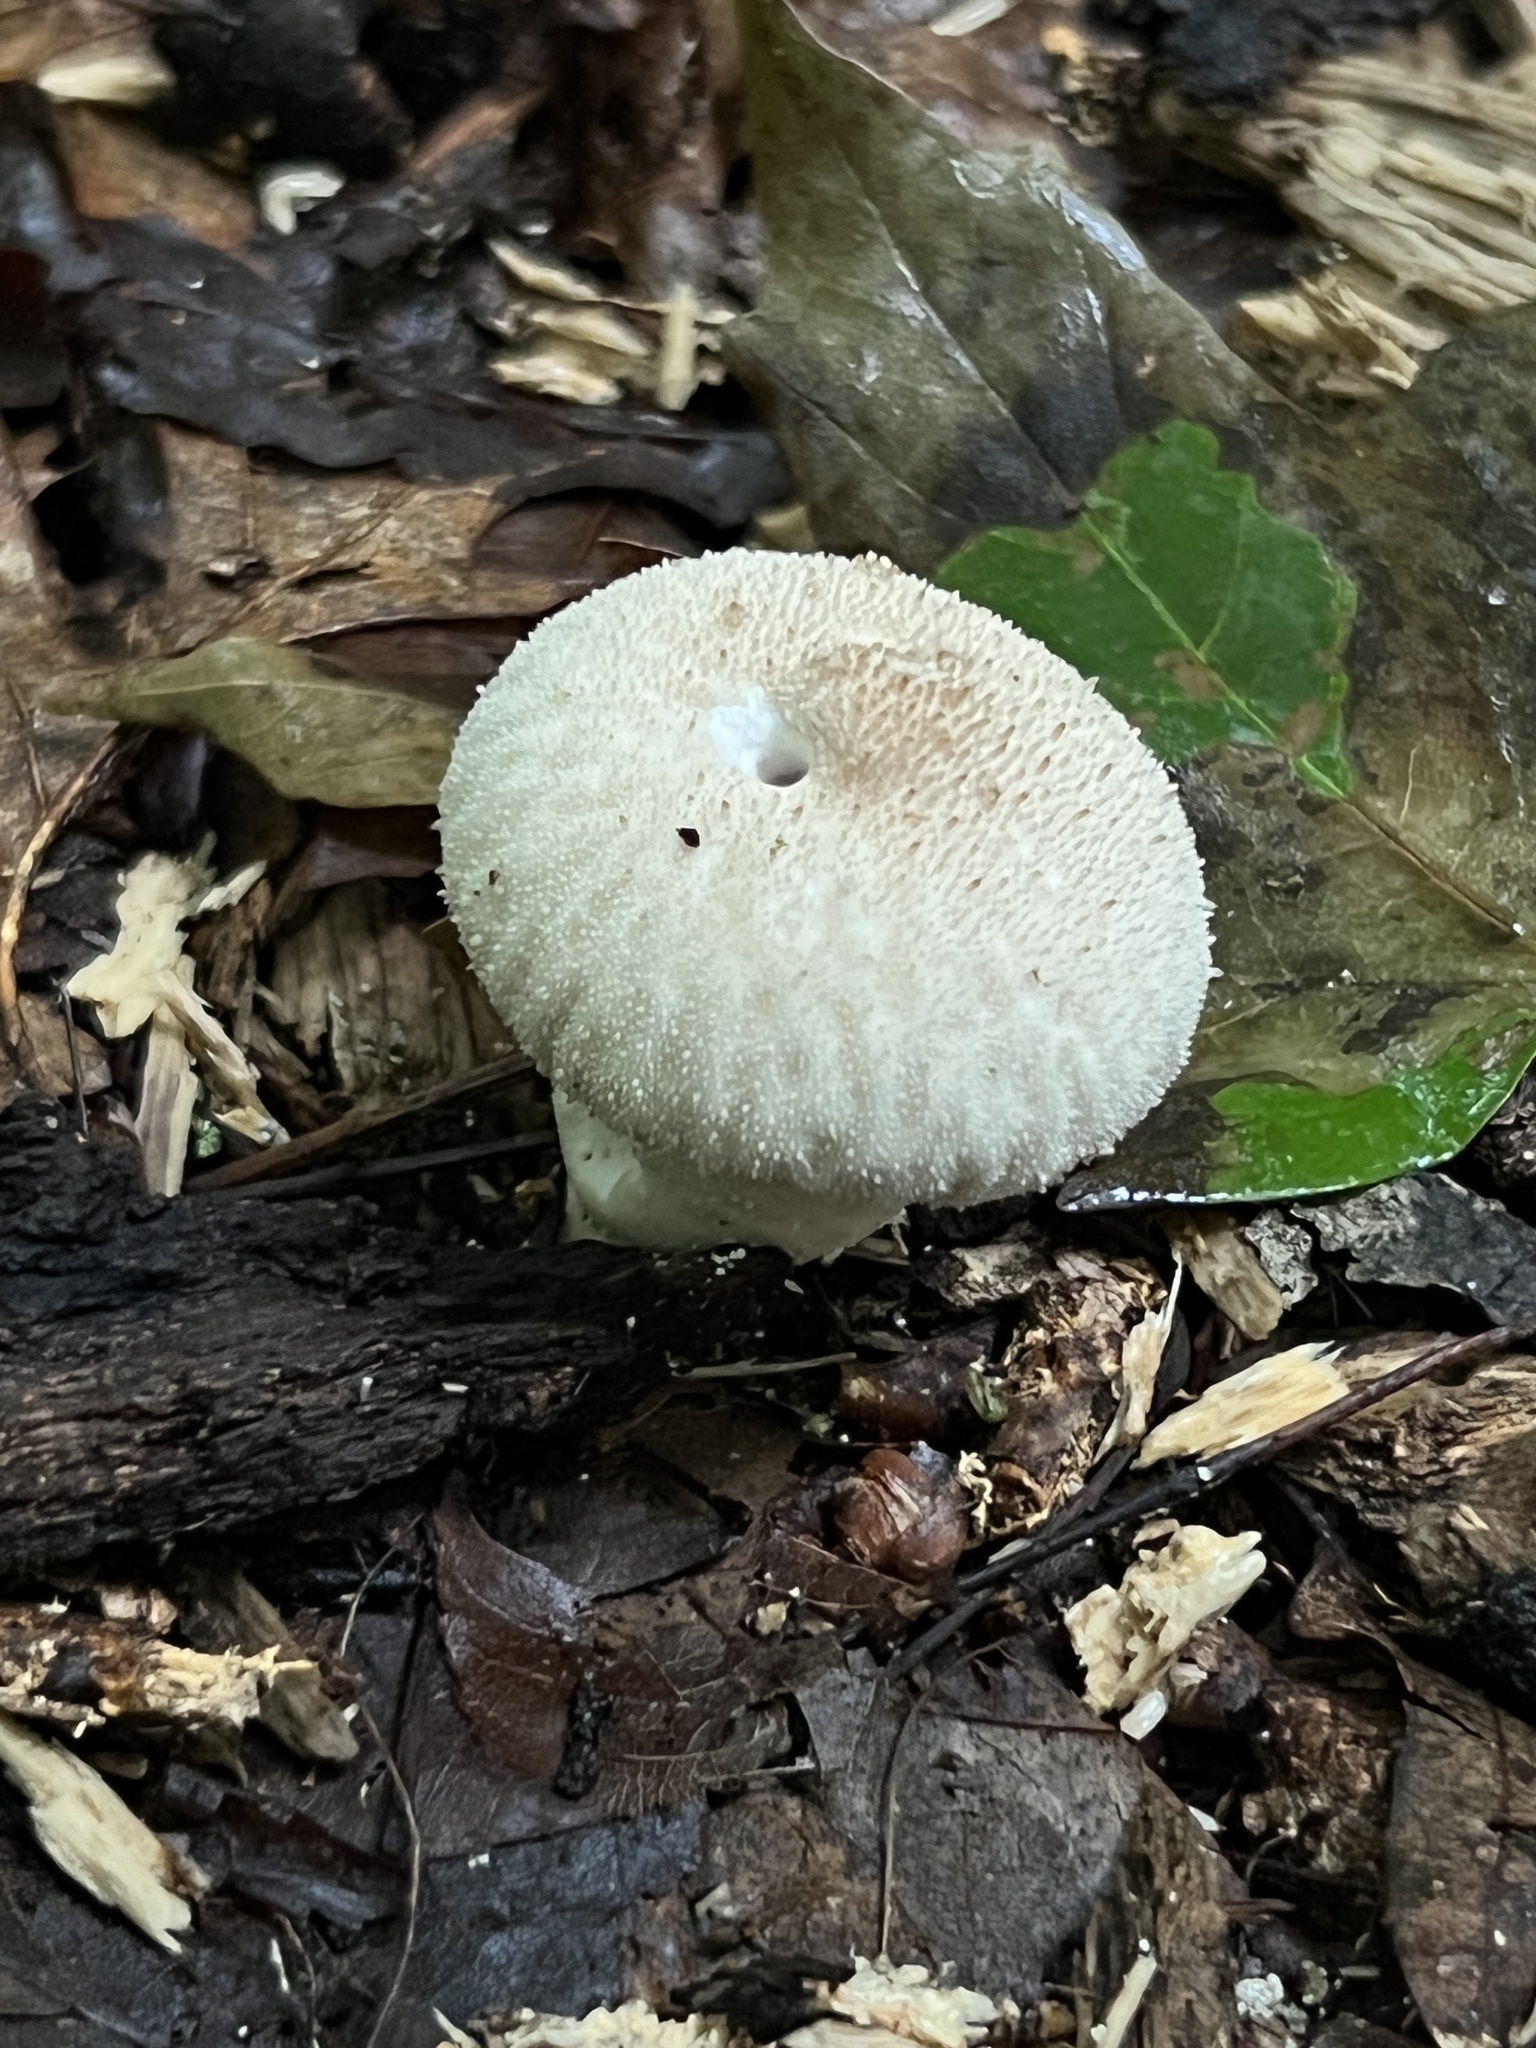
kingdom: Fungi
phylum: Basidiomycota
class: Agaricomycetes
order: Agaricales
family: Lycoperdaceae
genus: Lycoperdon
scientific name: Lycoperdon perlatum
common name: Common puffball
